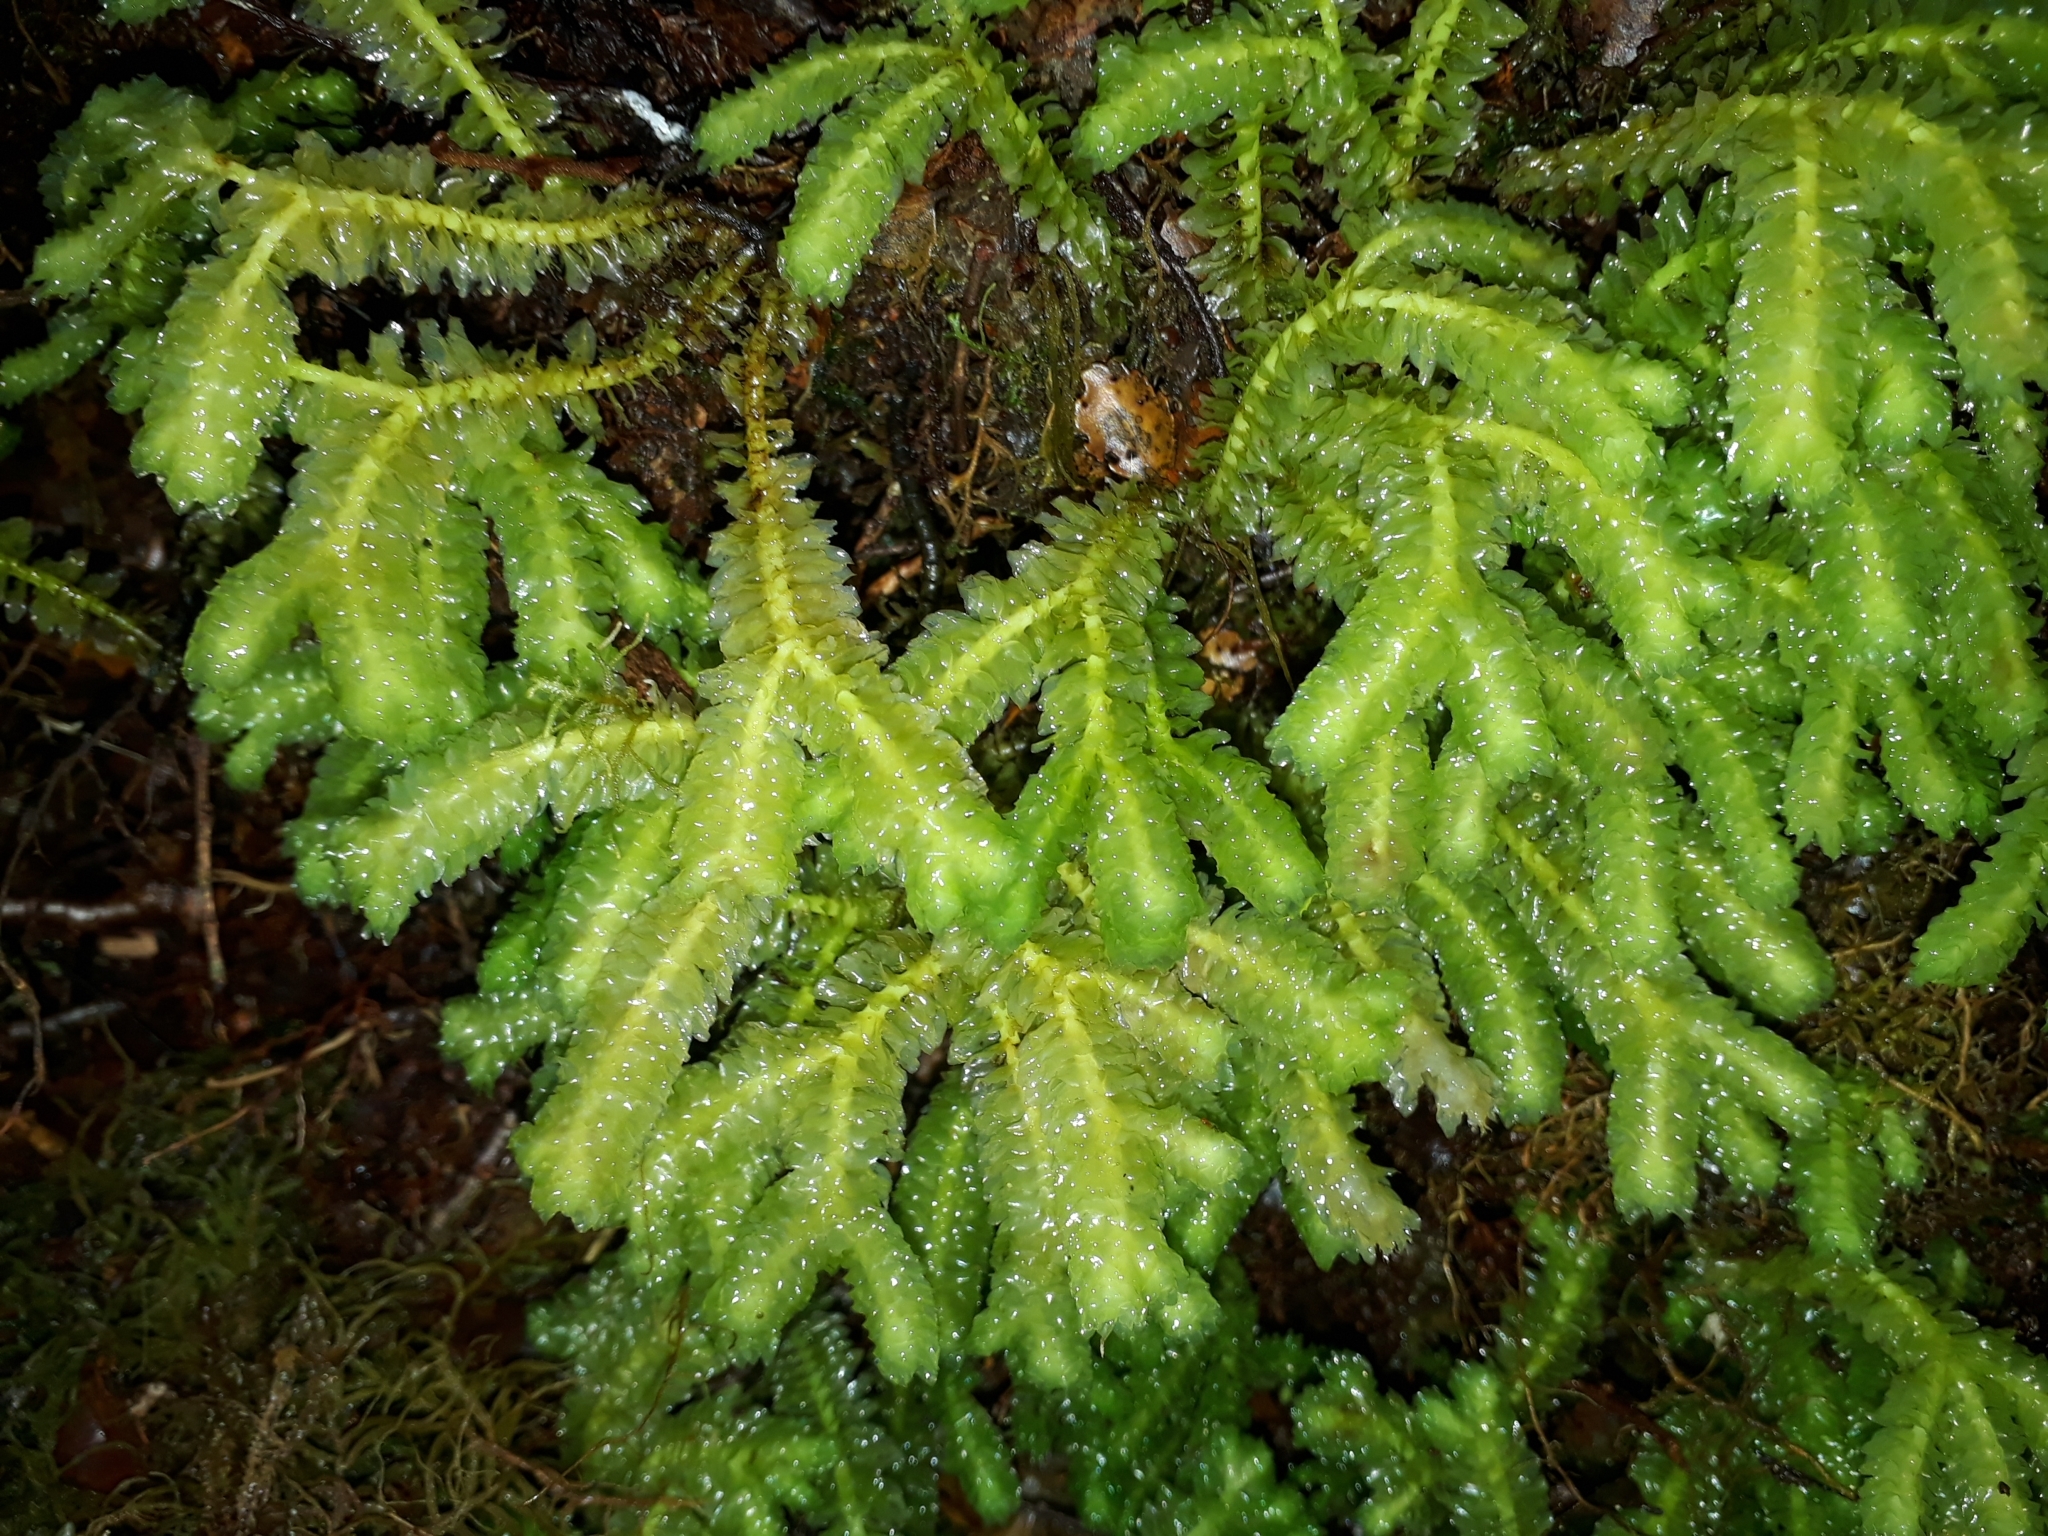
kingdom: Plantae
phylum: Marchantiophyta
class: Jungermanniopsida
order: Jungermanniales
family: Schistochilaceae
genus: Schistochila
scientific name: Schistochila nobilis
